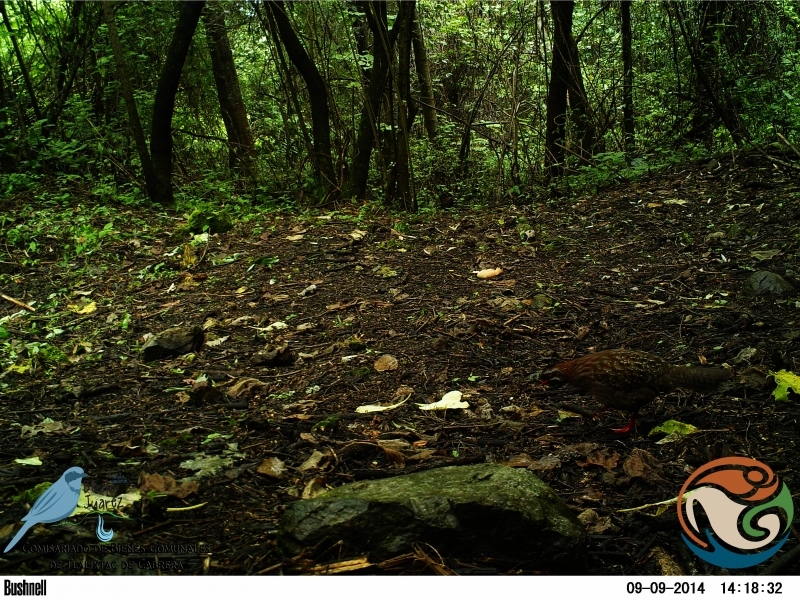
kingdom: Animalia
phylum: Chordata
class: Aves
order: Galliformes
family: Odontophoridae
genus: Dendrortyx
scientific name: Dendrortyx macroura
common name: Long-tailed wood-partridge
